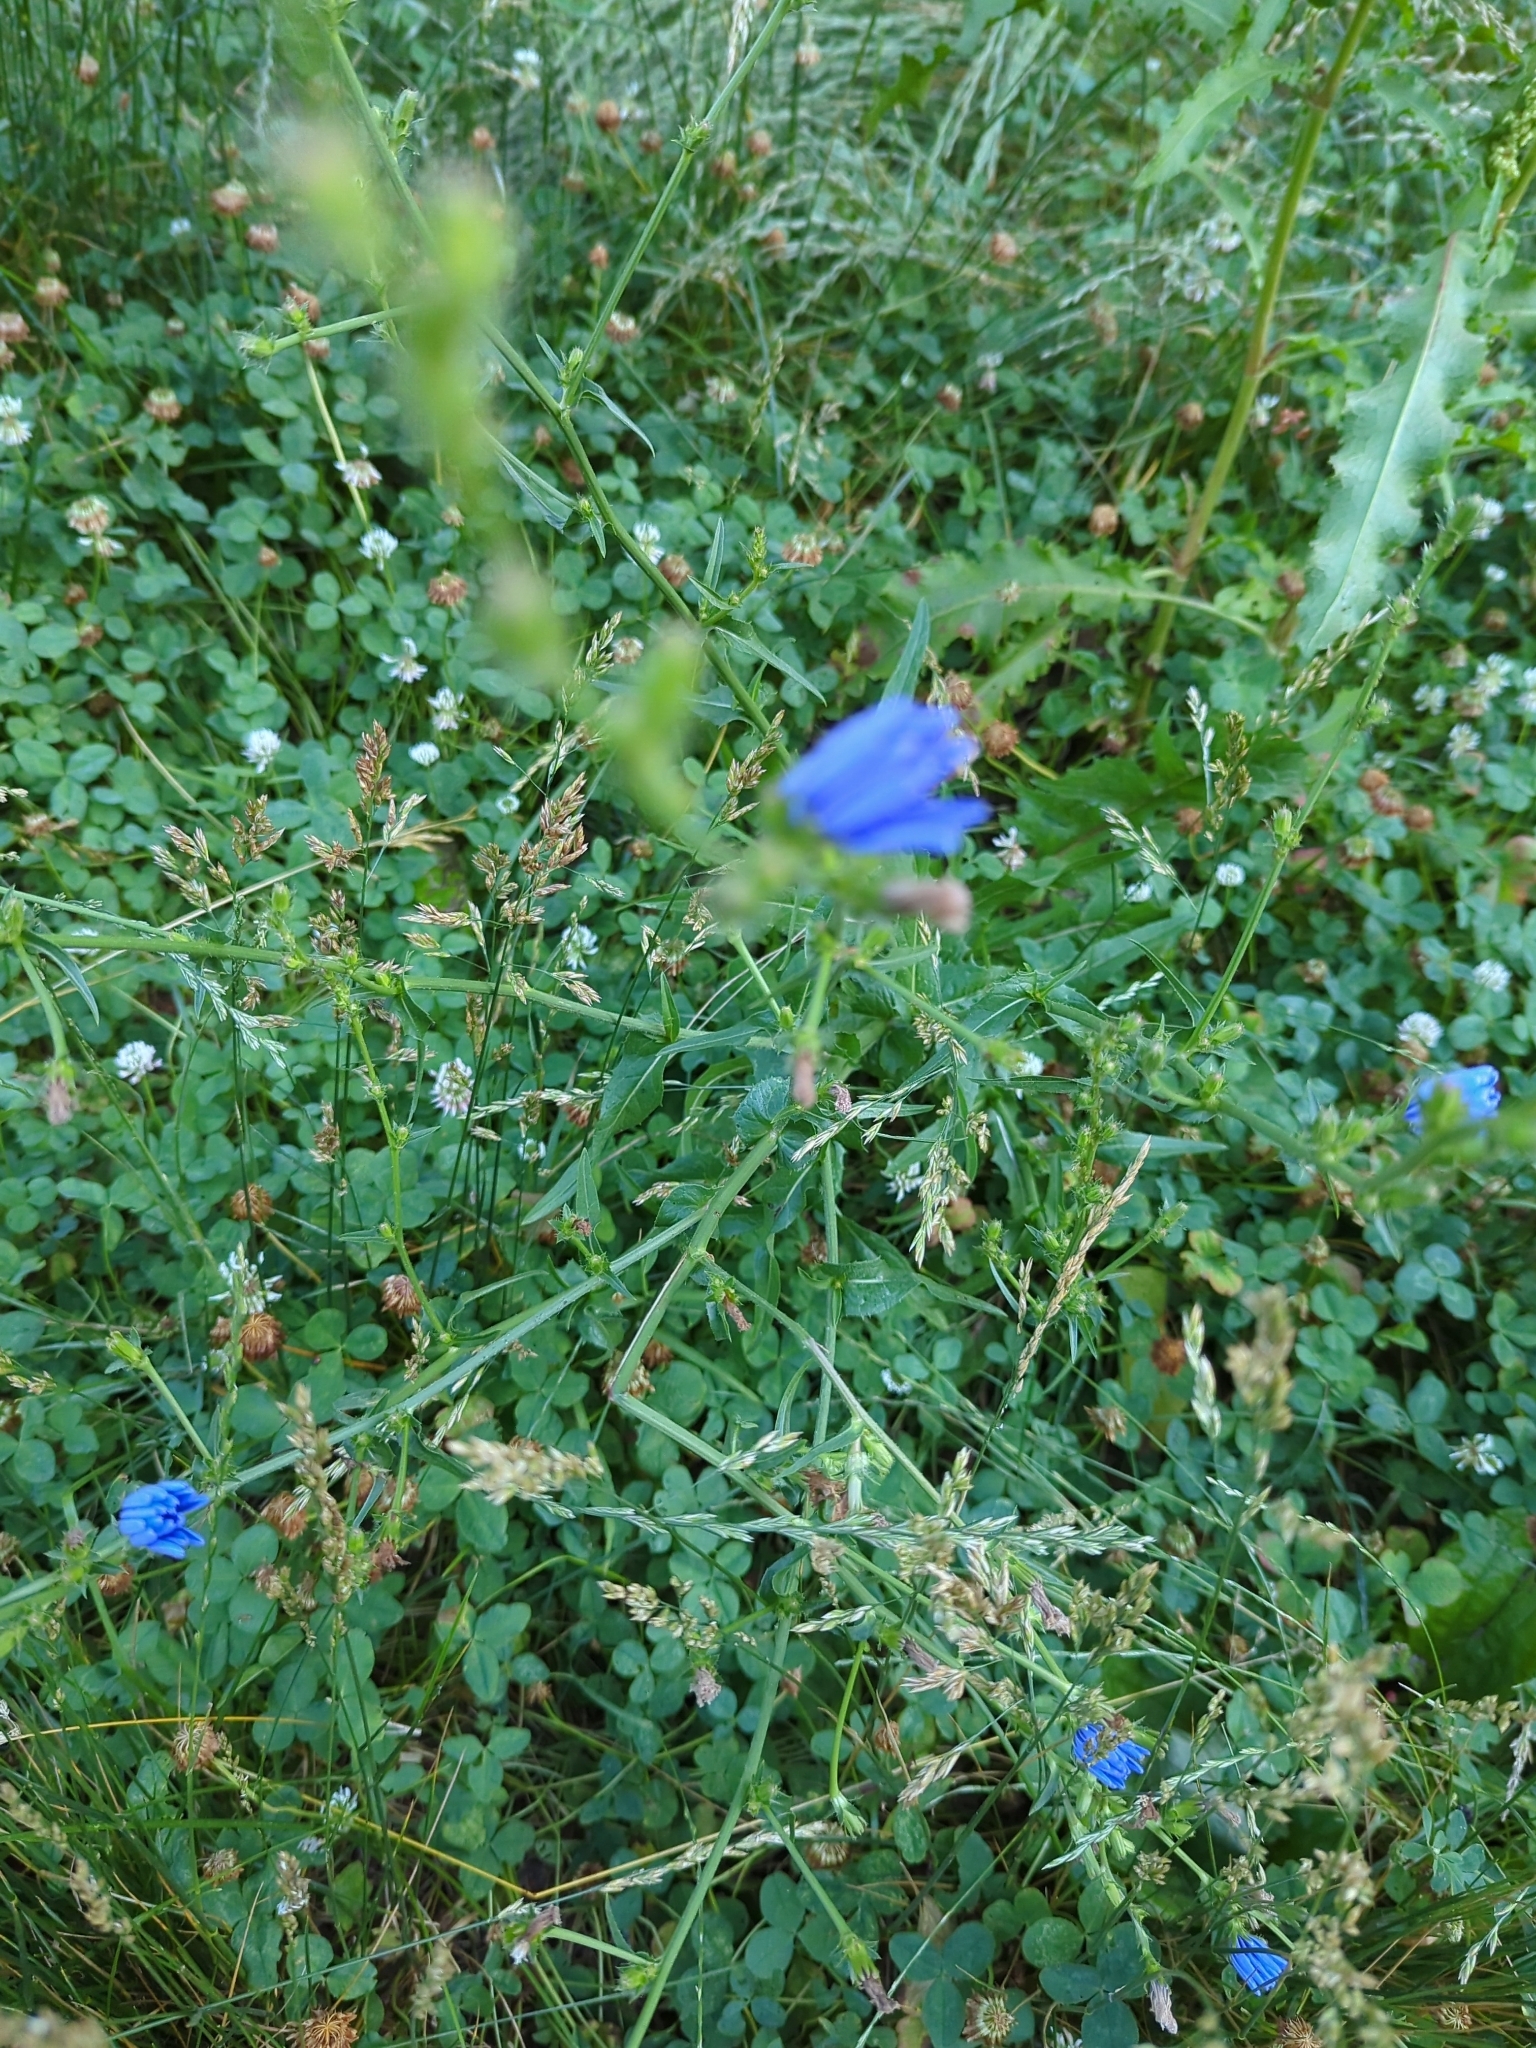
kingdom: Plantae
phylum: Tracheophyta
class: Magnoliopsida
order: Asterales
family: Asteraceae
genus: Cichorium
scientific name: Cichorium intybus
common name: Chicory
